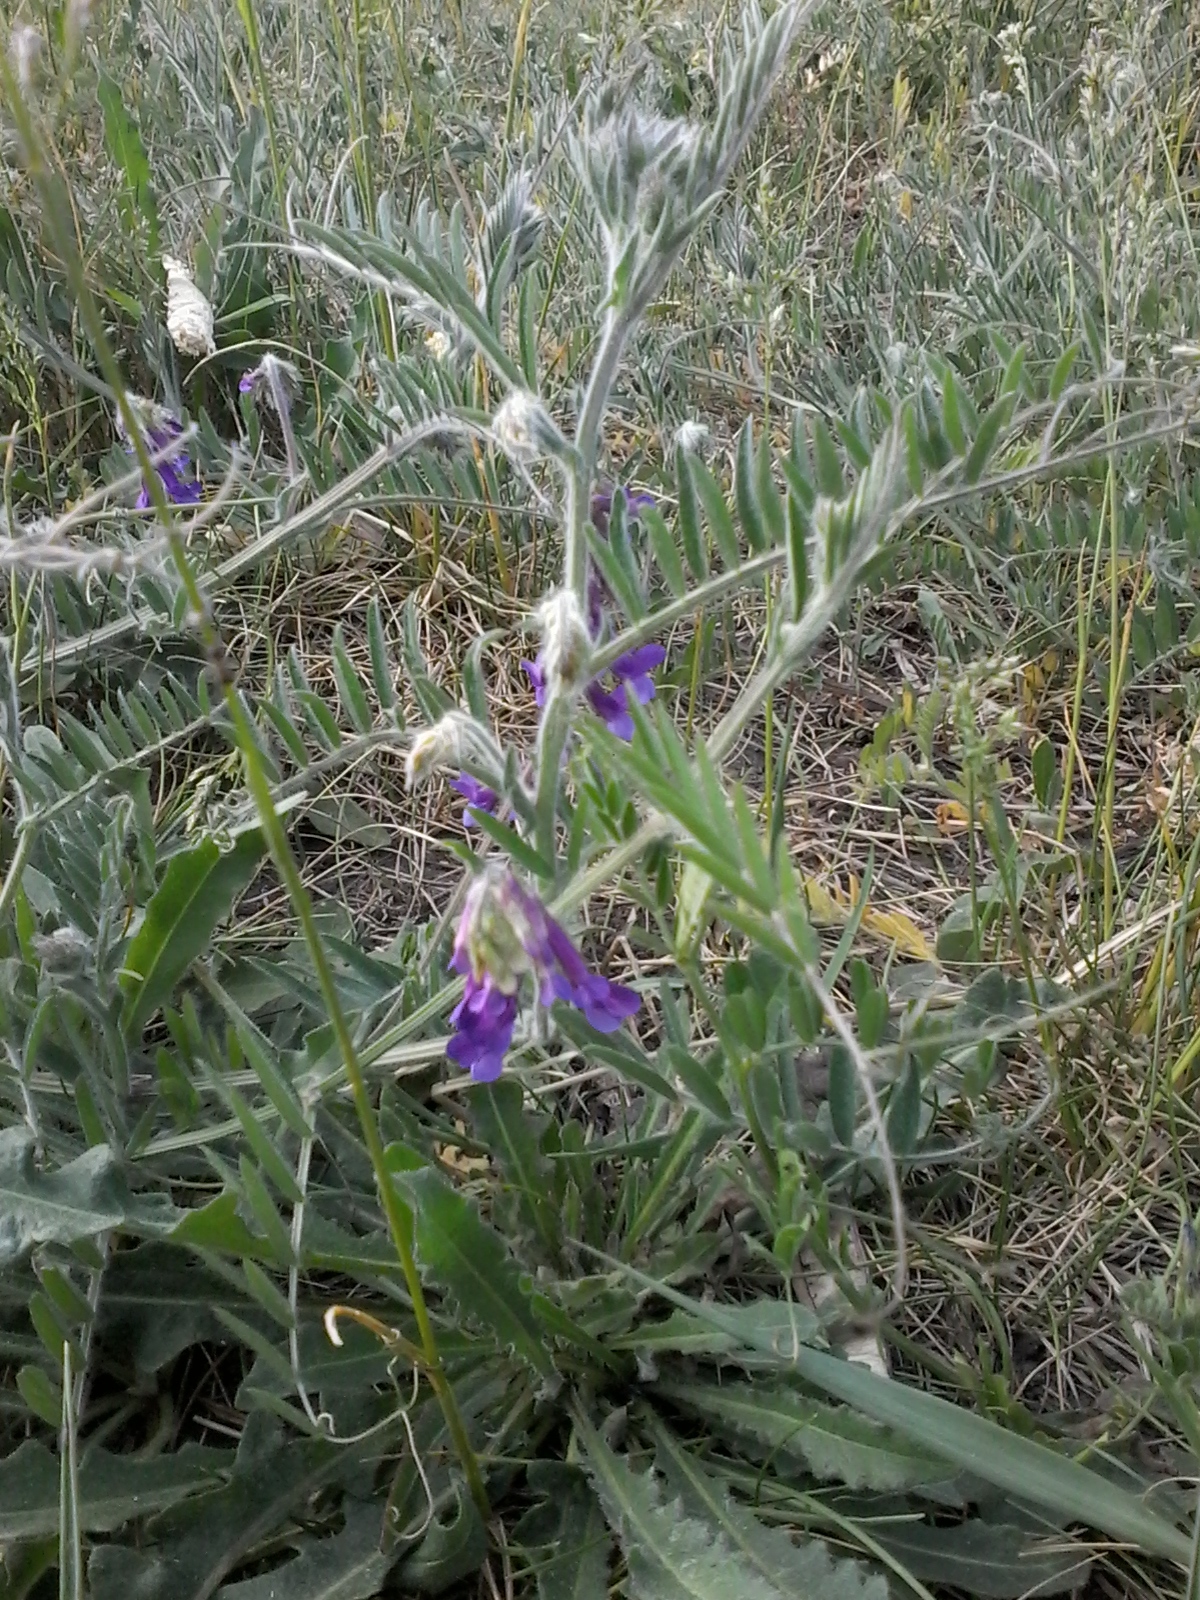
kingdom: Plantae
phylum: Tracheophyta
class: Magnoliopsida
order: Fabales
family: Fabaceae
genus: Vicia
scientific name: Vicia villosa
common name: Fodder vetch
